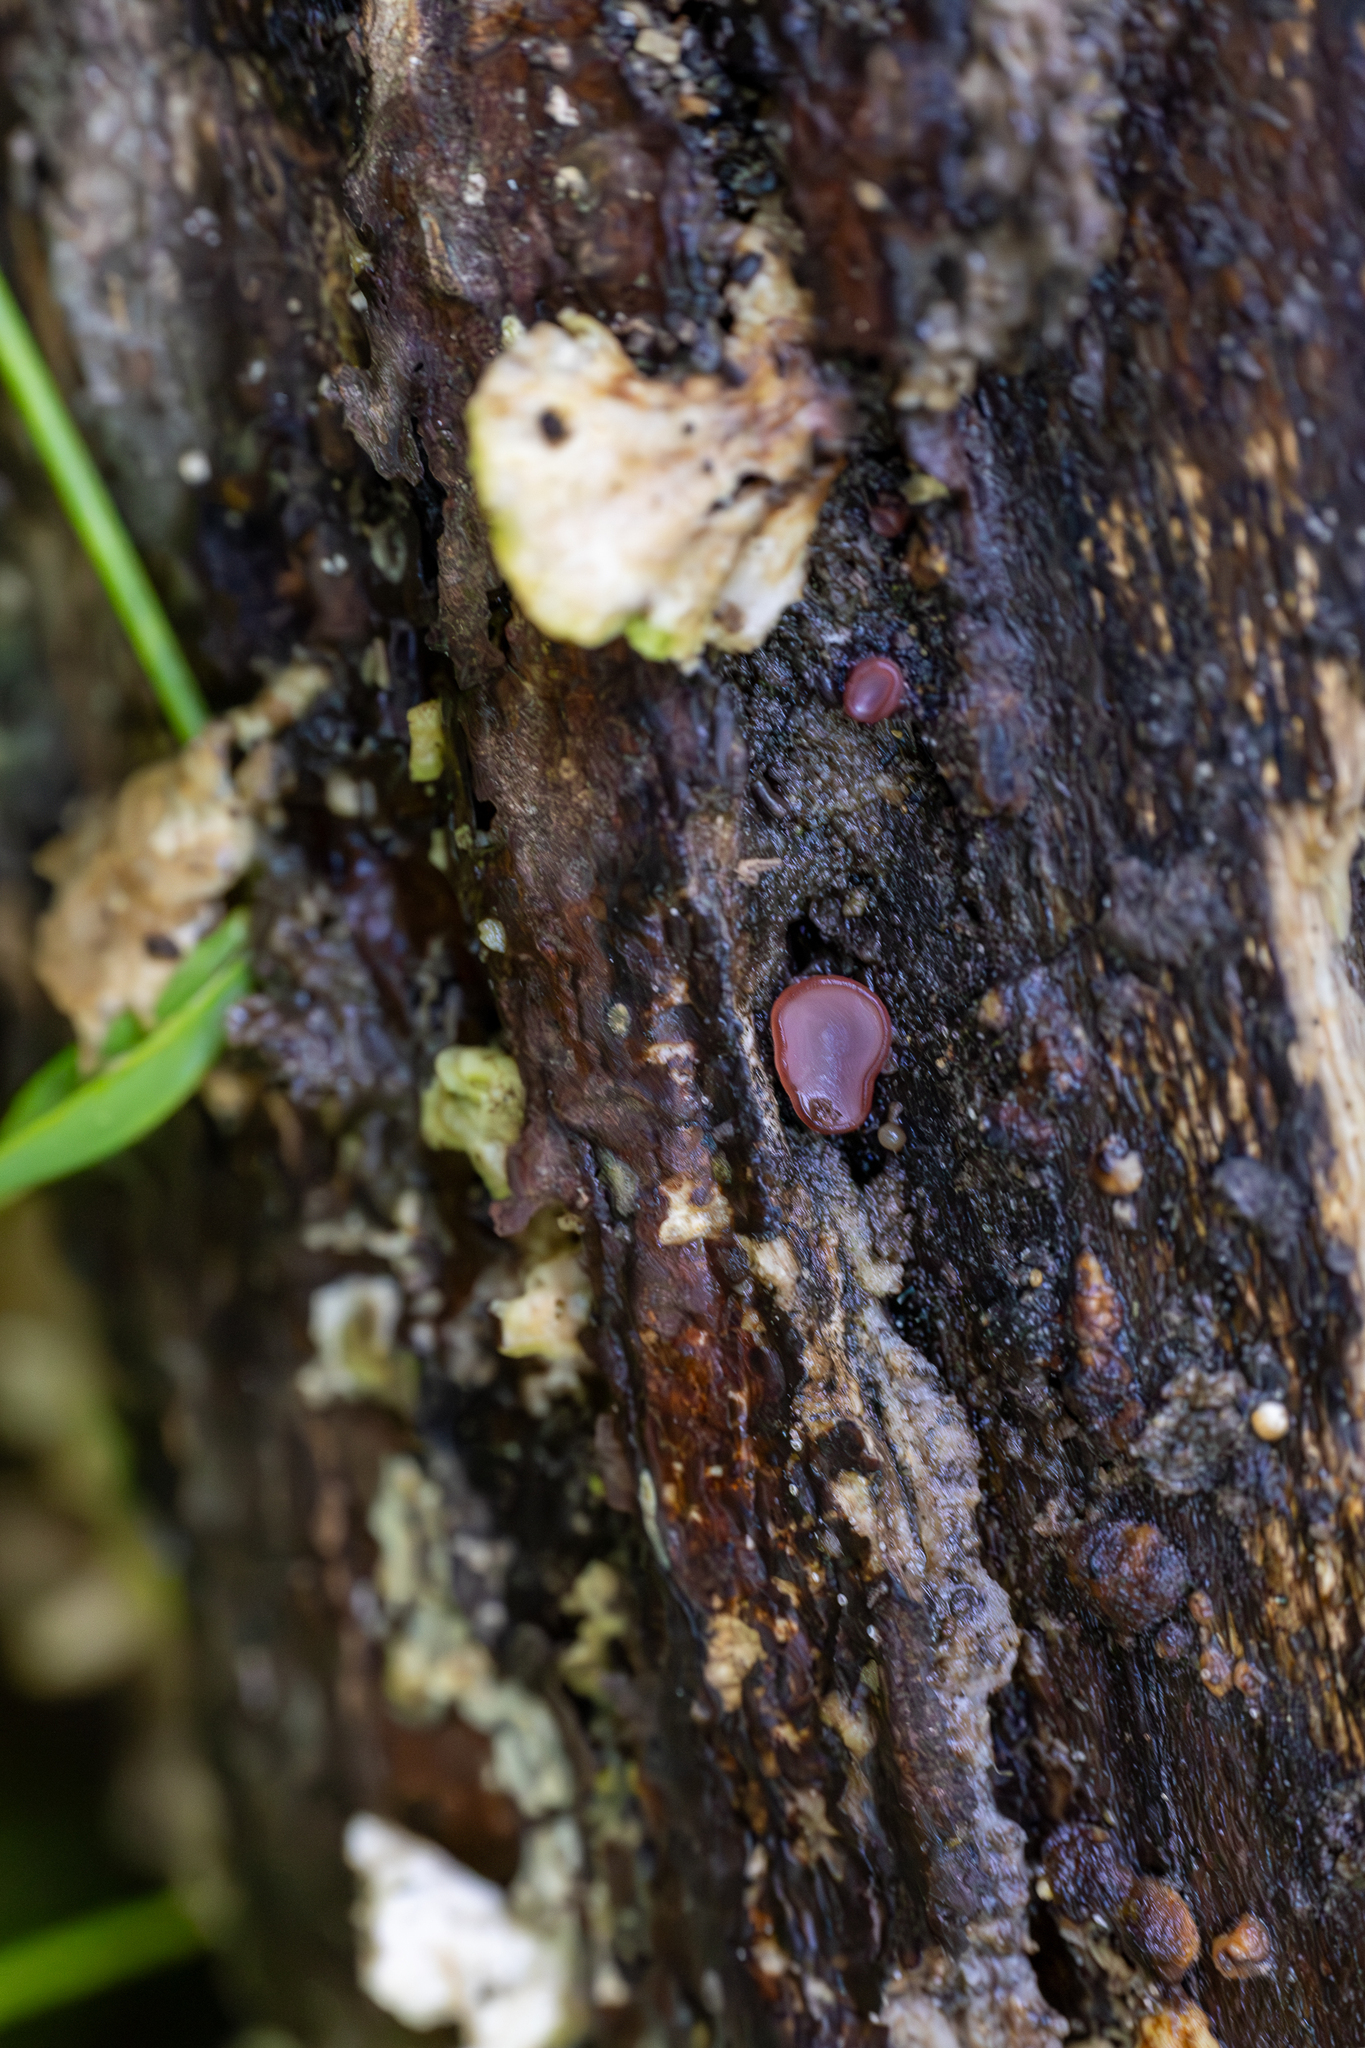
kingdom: Fungi
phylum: Ascomycota
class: Leotiomycetes
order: Helotiales
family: Gelatinodiscaceae
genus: Ascocoryne
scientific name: Ascocoryne sarcoides
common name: Purple jellydisc
